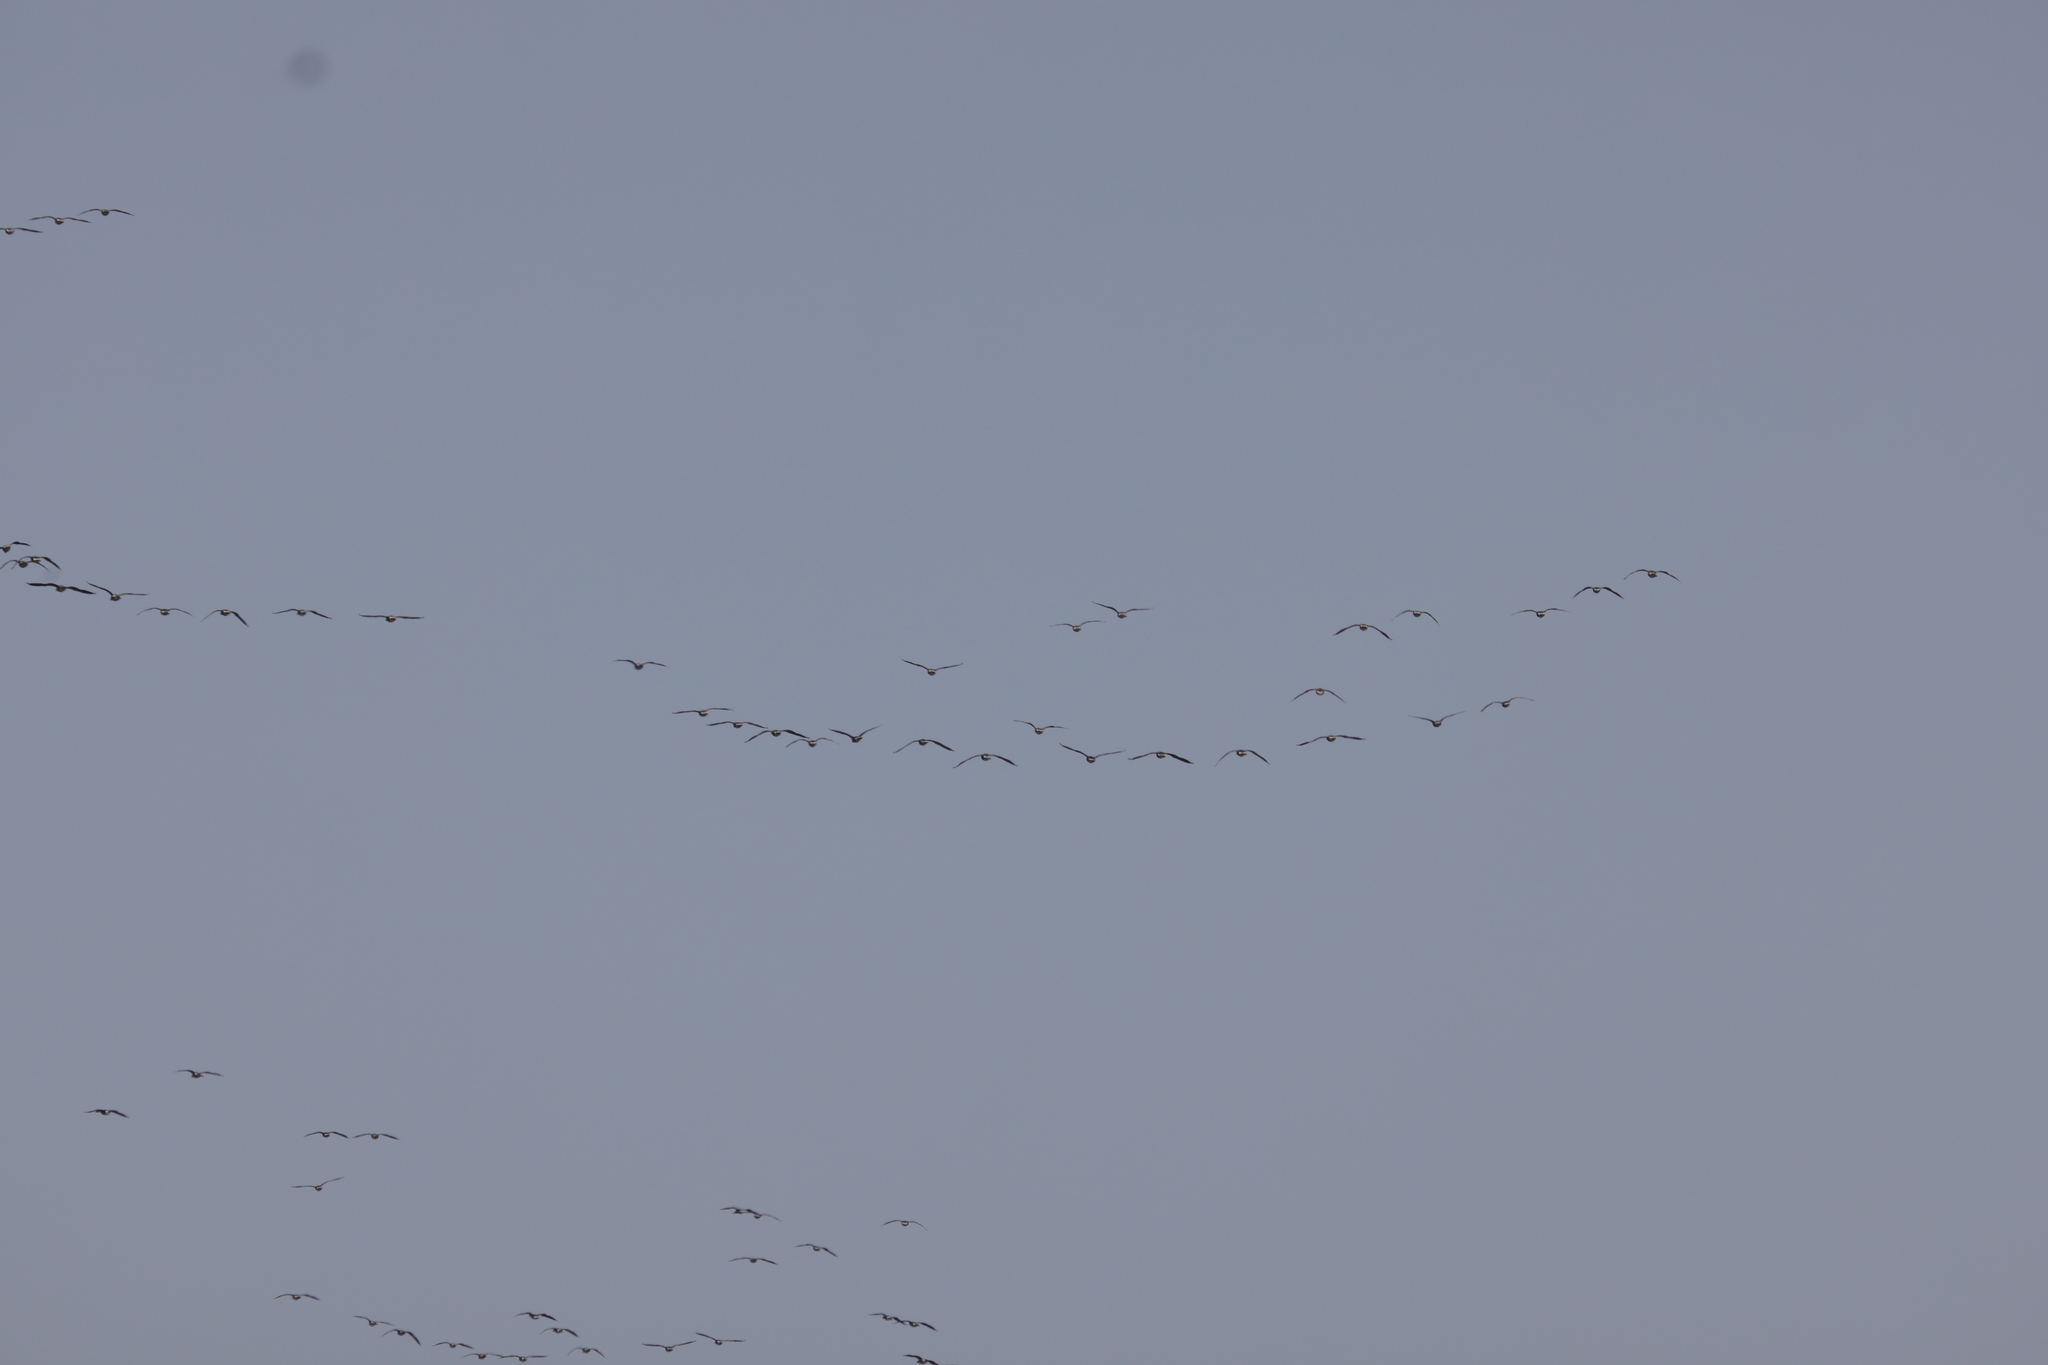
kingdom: Animalia
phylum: Chordata
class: Aves
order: Anseriformes
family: Anatidae
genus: Anser
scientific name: Anser brachyrhynchus
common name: Pink-footed goose
